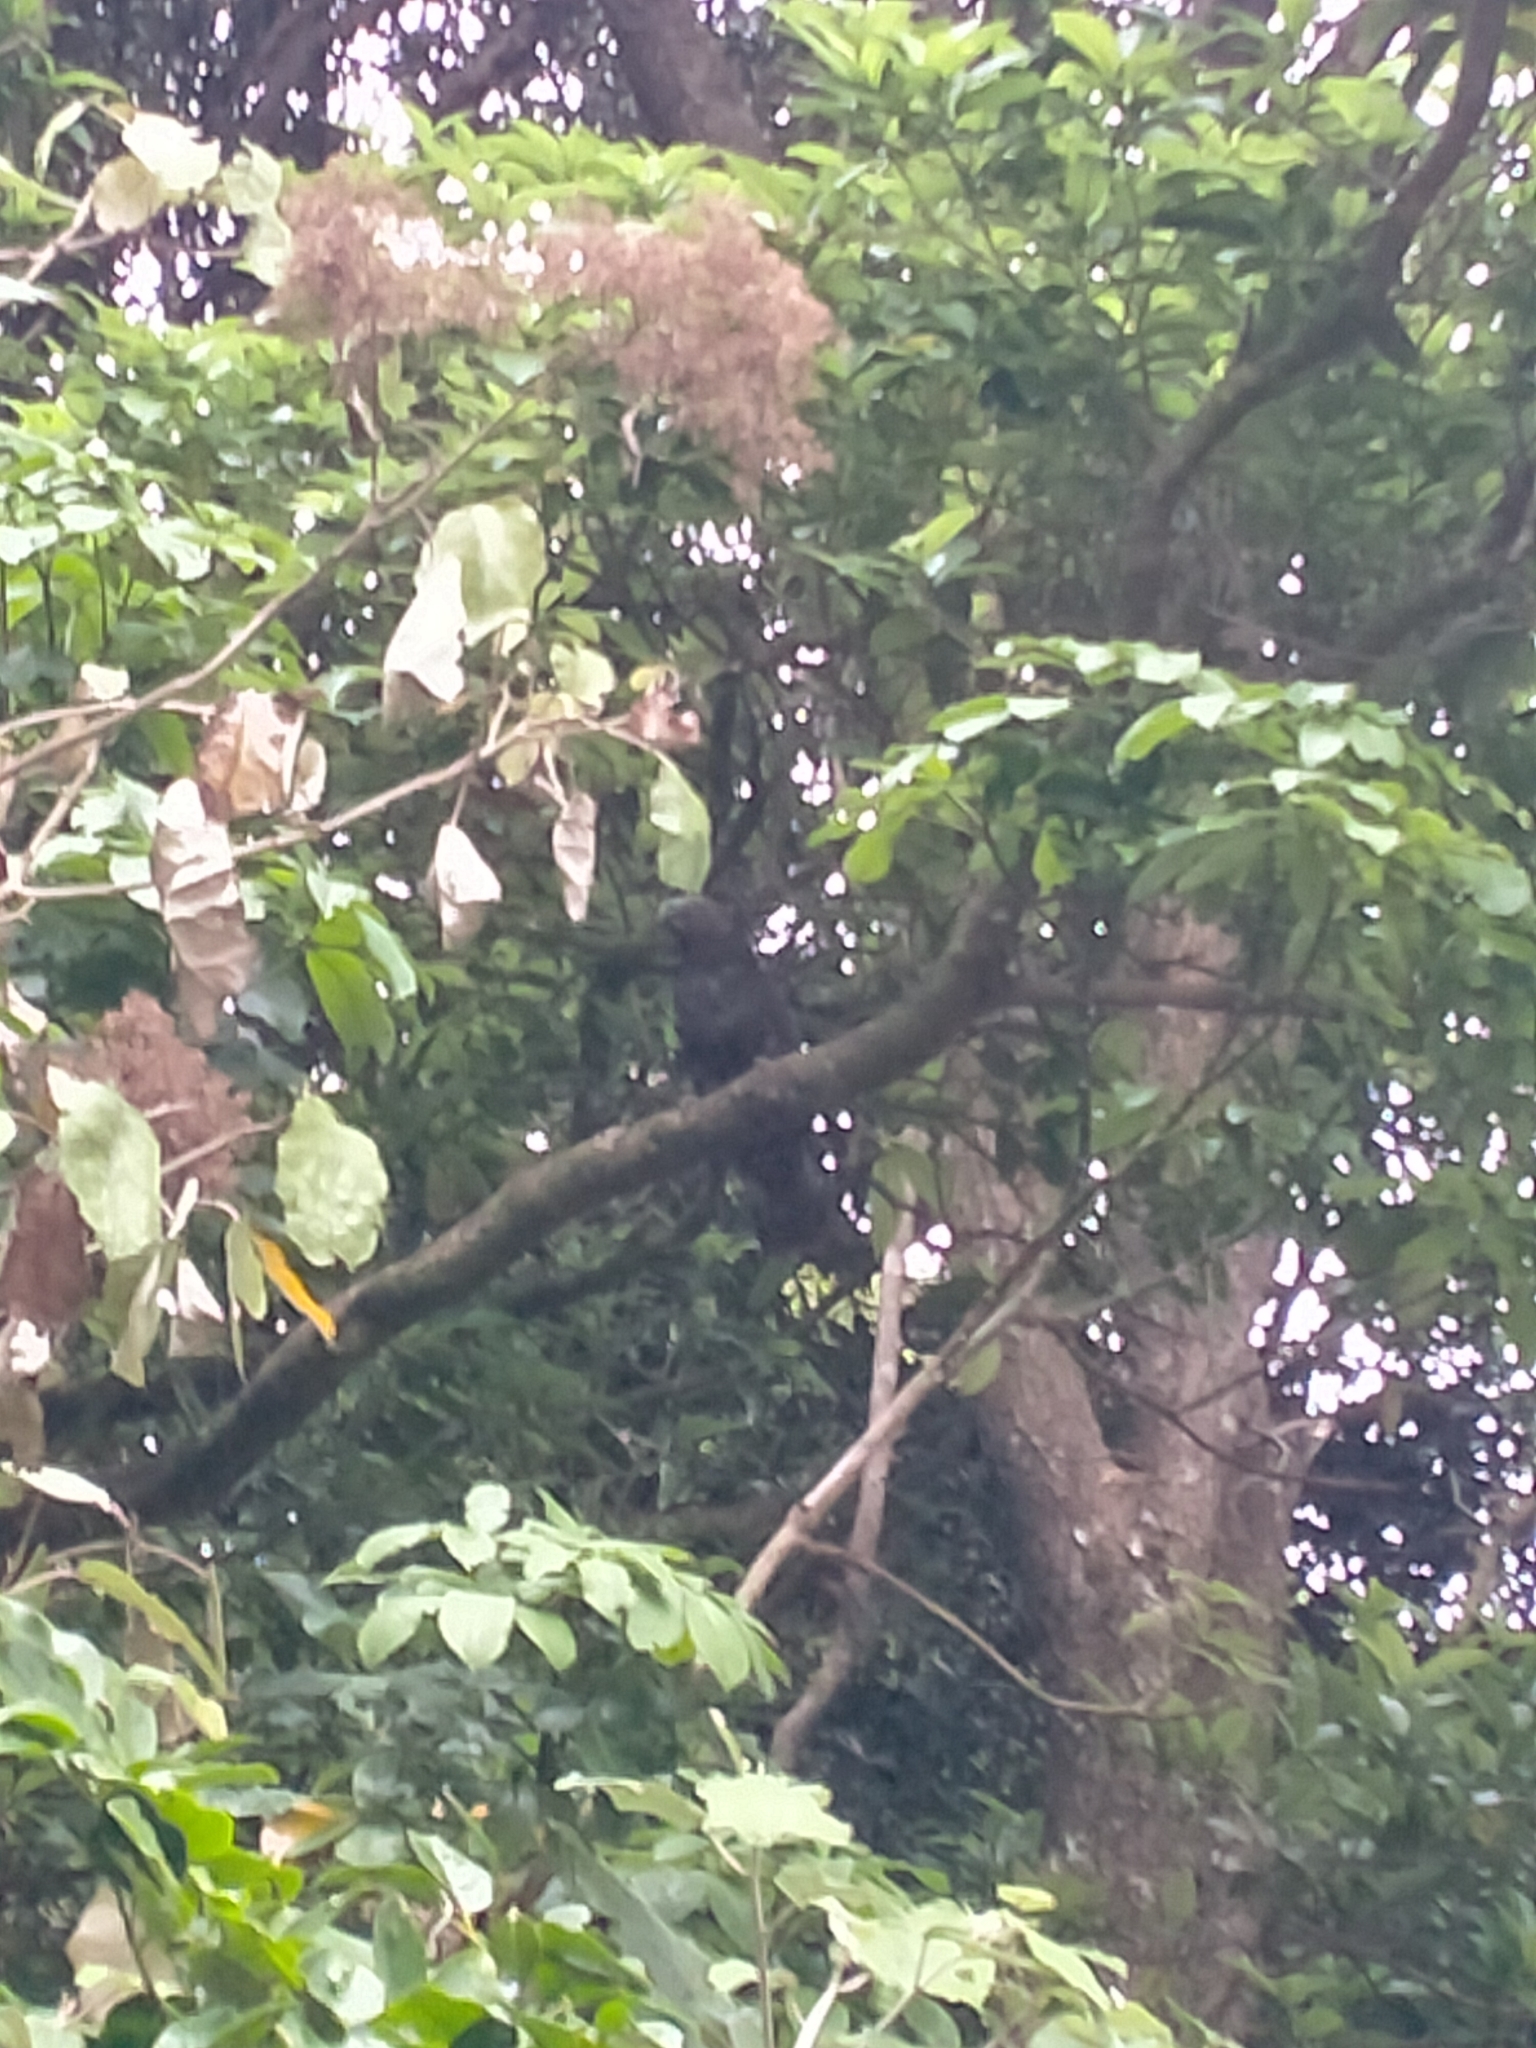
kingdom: Animalia
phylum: Chordata
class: Aves
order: Psittaciformes
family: Psittacidae
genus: Nestor
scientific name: Nestor meridionalis
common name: New zealand kaka
